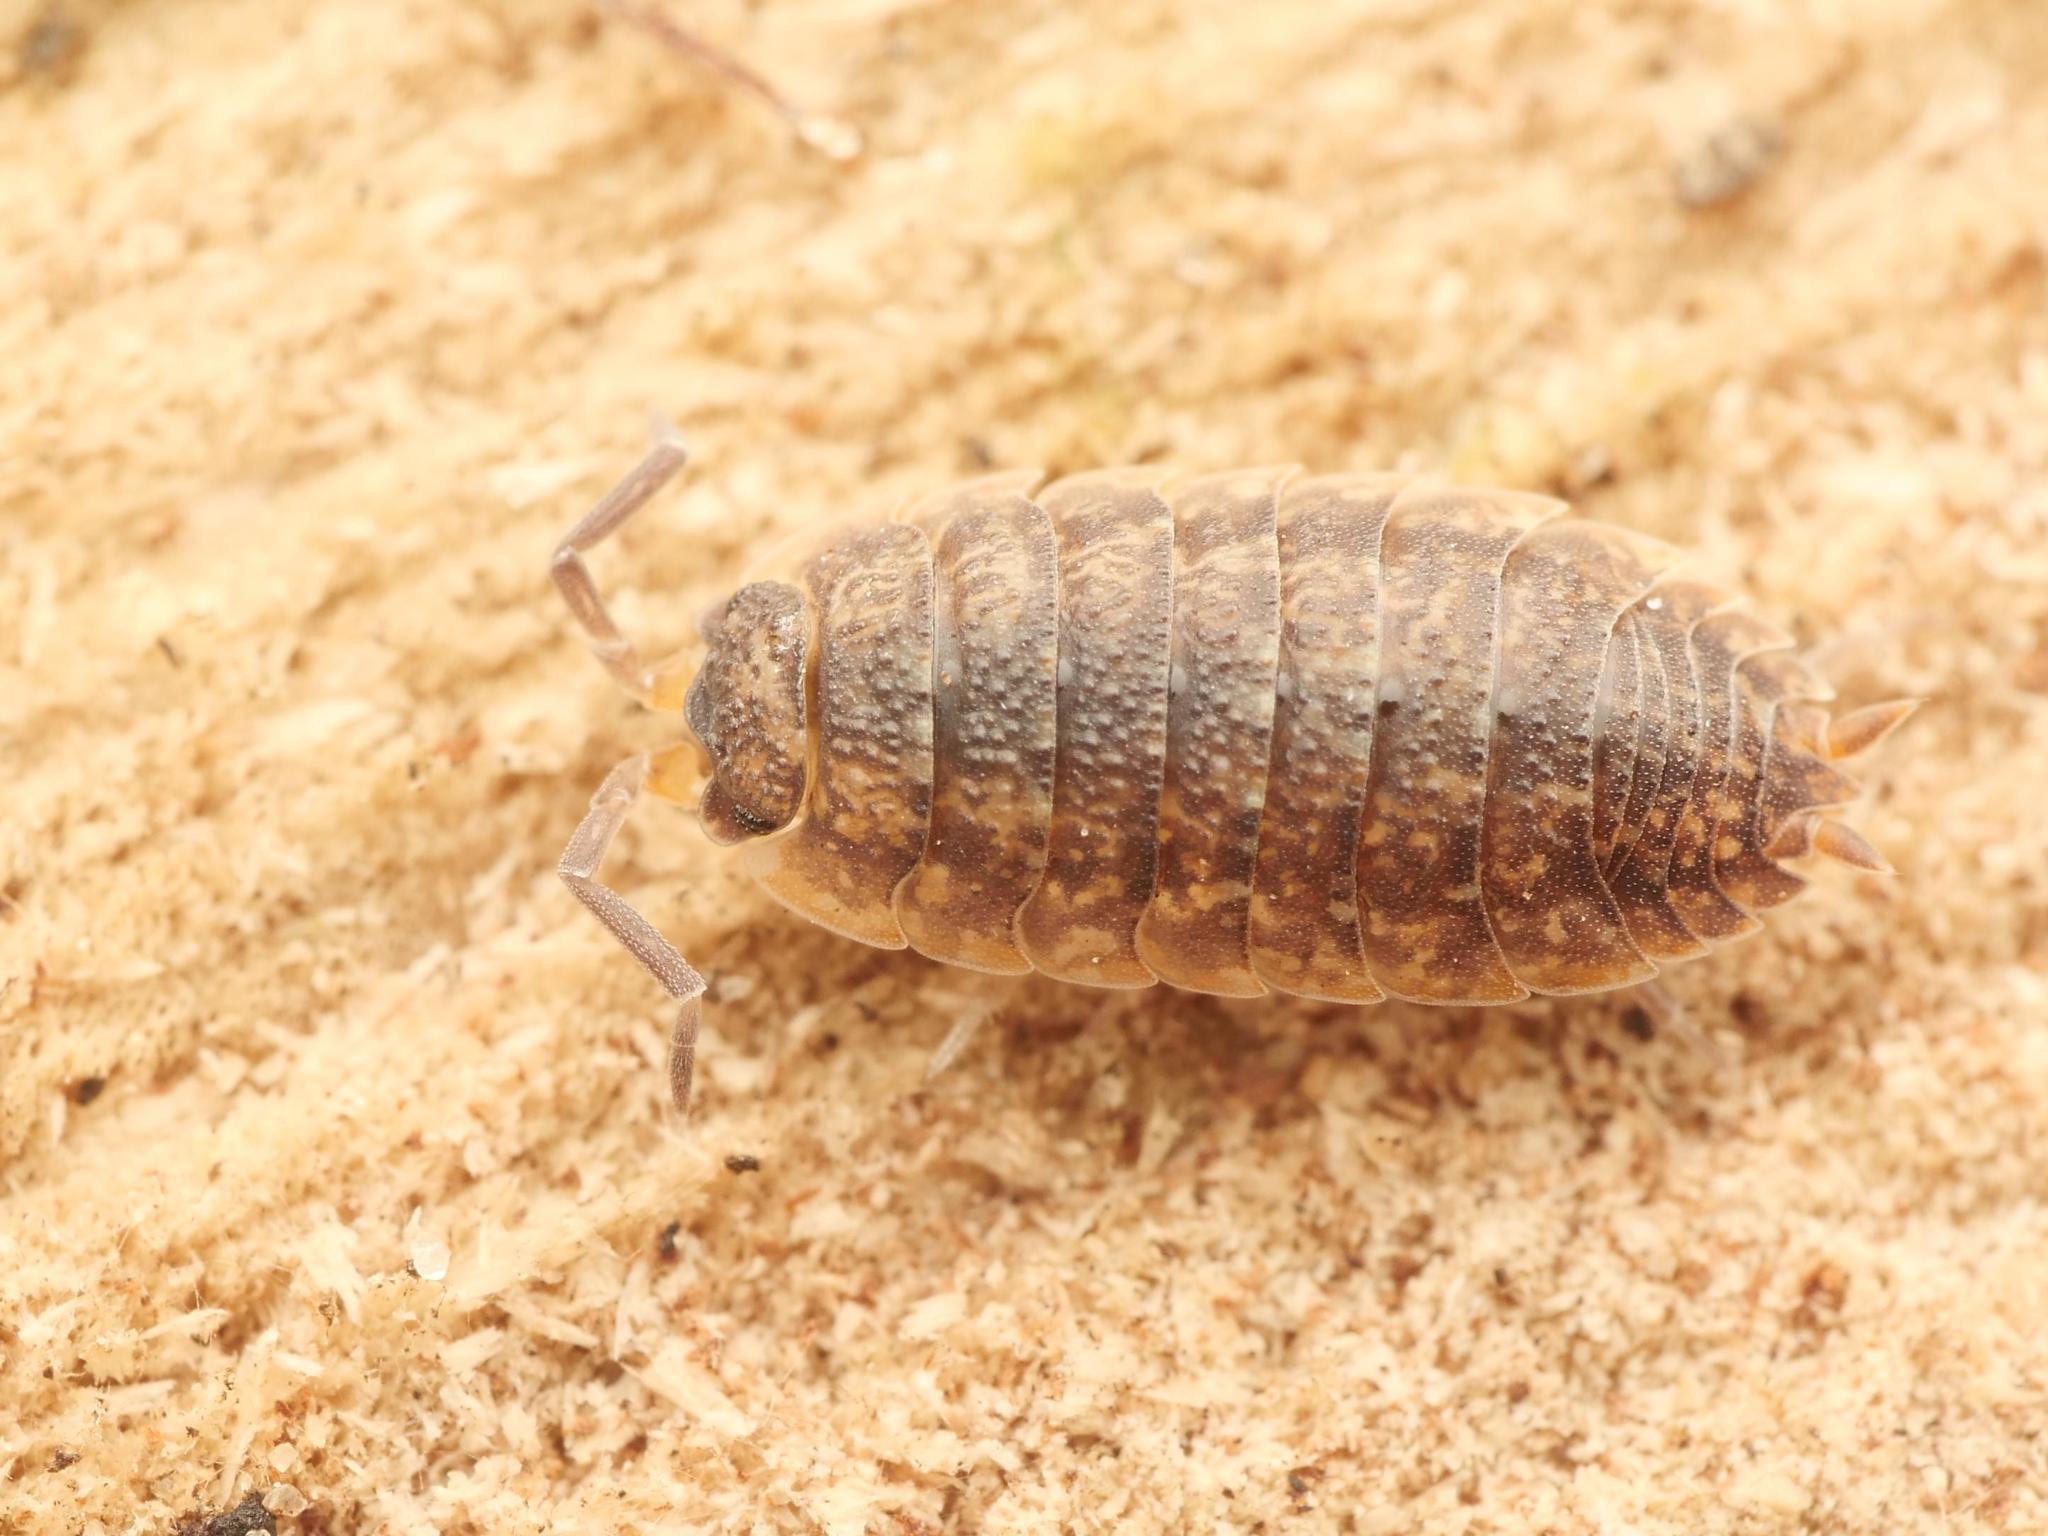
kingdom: Animalia
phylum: Arthropoda
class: Malacostraca
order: Isopoda
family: Porcellionidae
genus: Porcellio
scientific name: Porcellio scaber
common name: Common rough woodlouse
